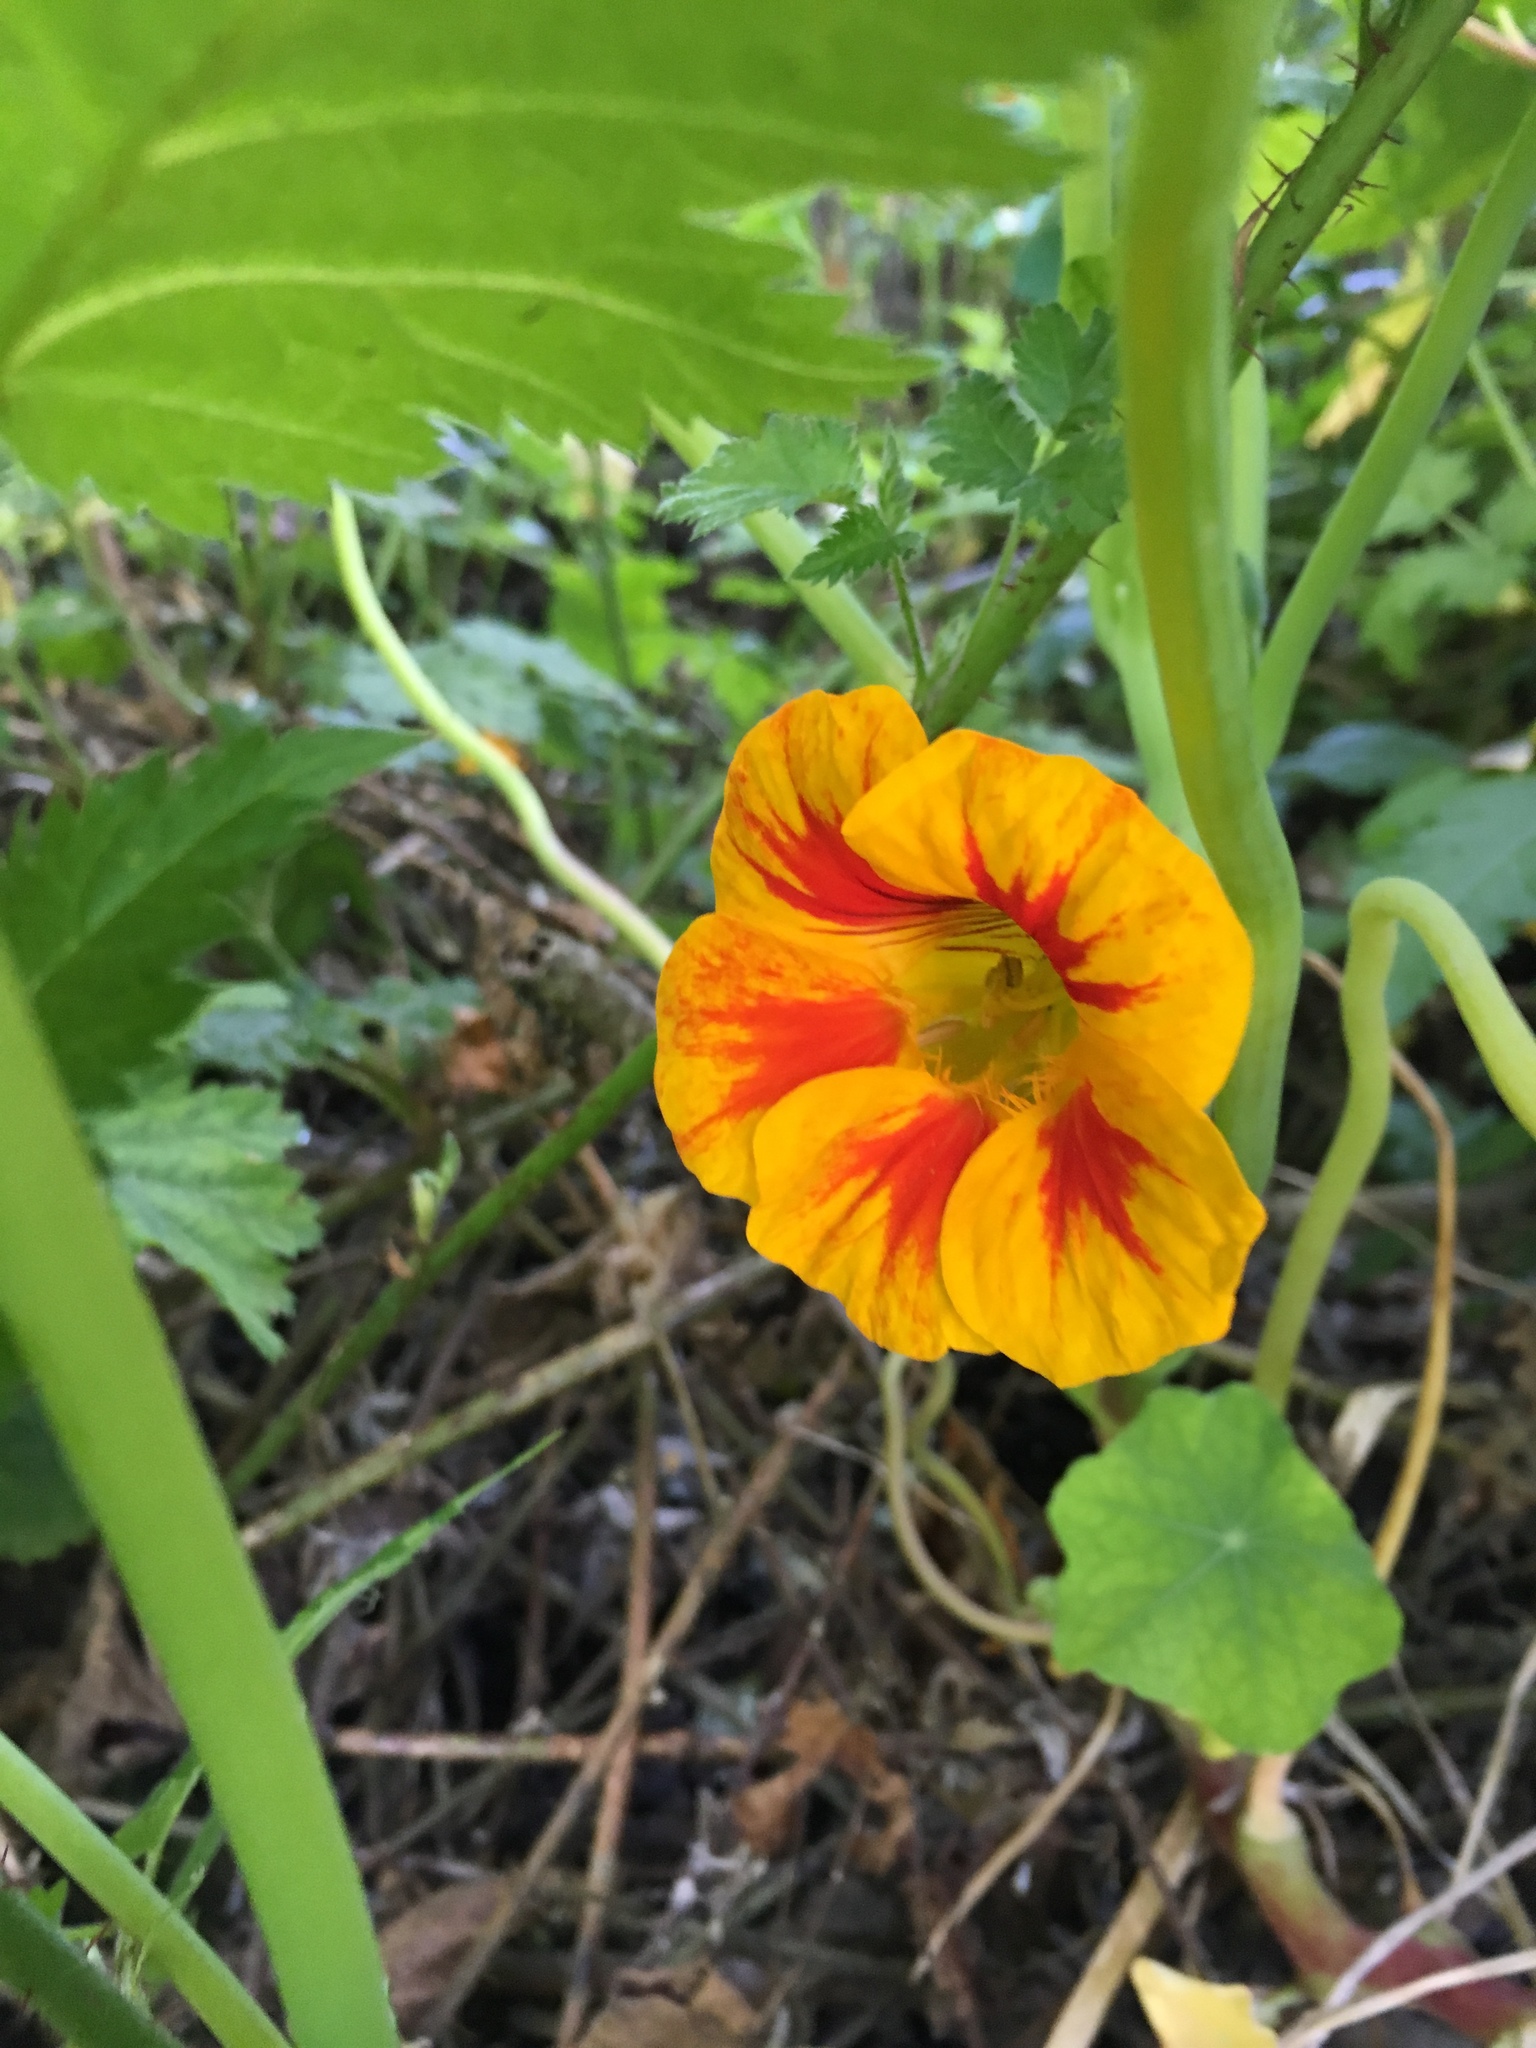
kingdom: Plantae
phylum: Tracheophyta
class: Magnoliopsida
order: Brassicales
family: Tropaeolaceae
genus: Tropaeolum
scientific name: Tropaeolum majus
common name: Nasturtium
